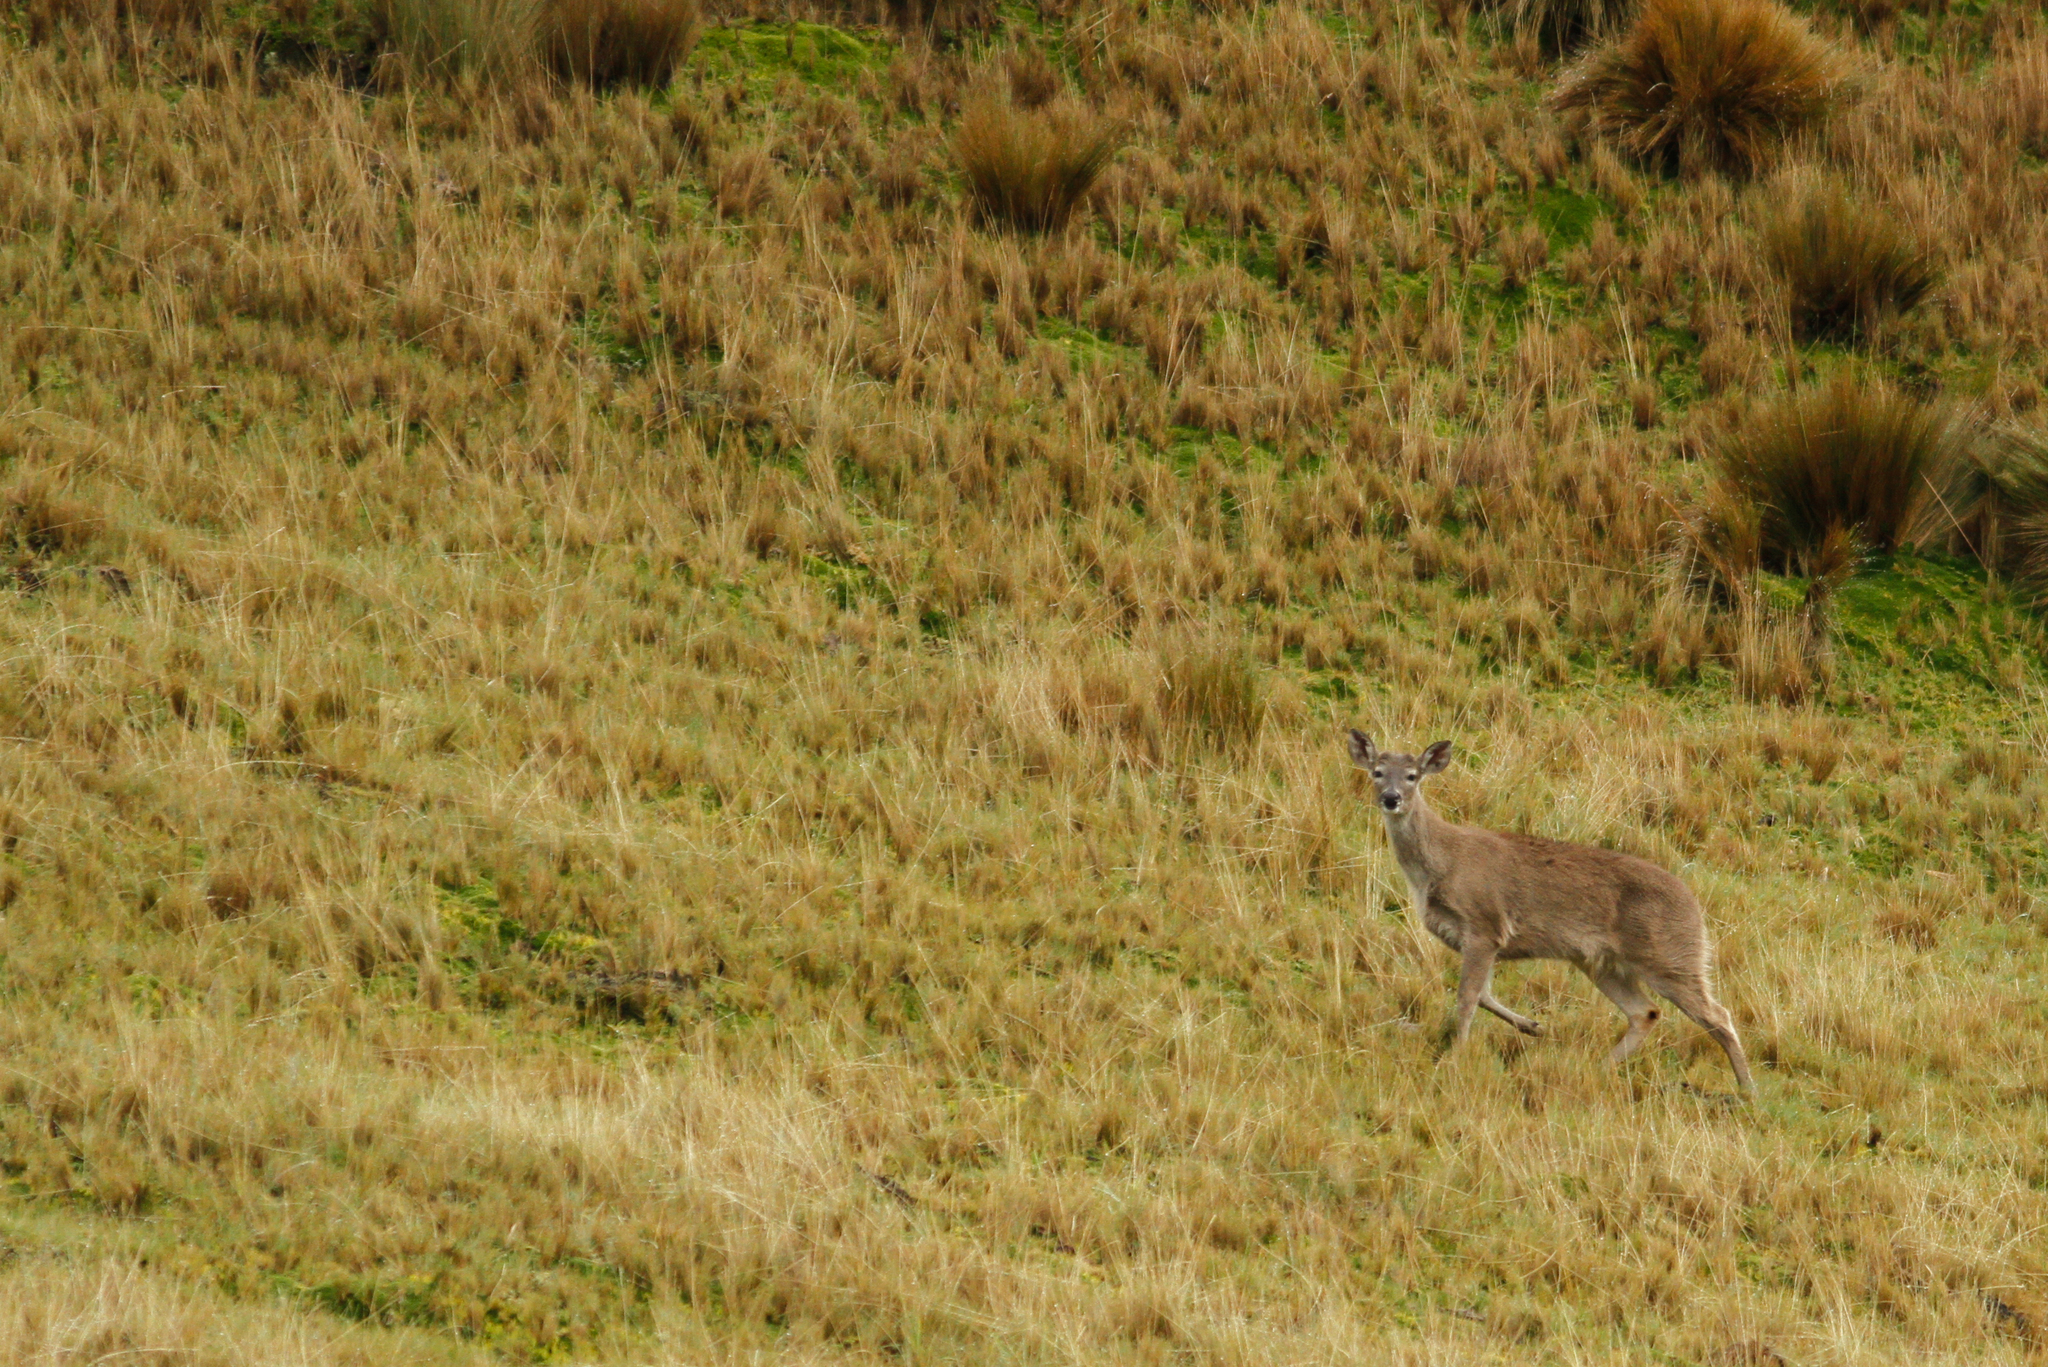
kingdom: Animalia
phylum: Chordata
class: Mammalia
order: Artiodactyla
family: Cervidae
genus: Odocoileus
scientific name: Odocoileus virginianus
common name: White-tailed deer
